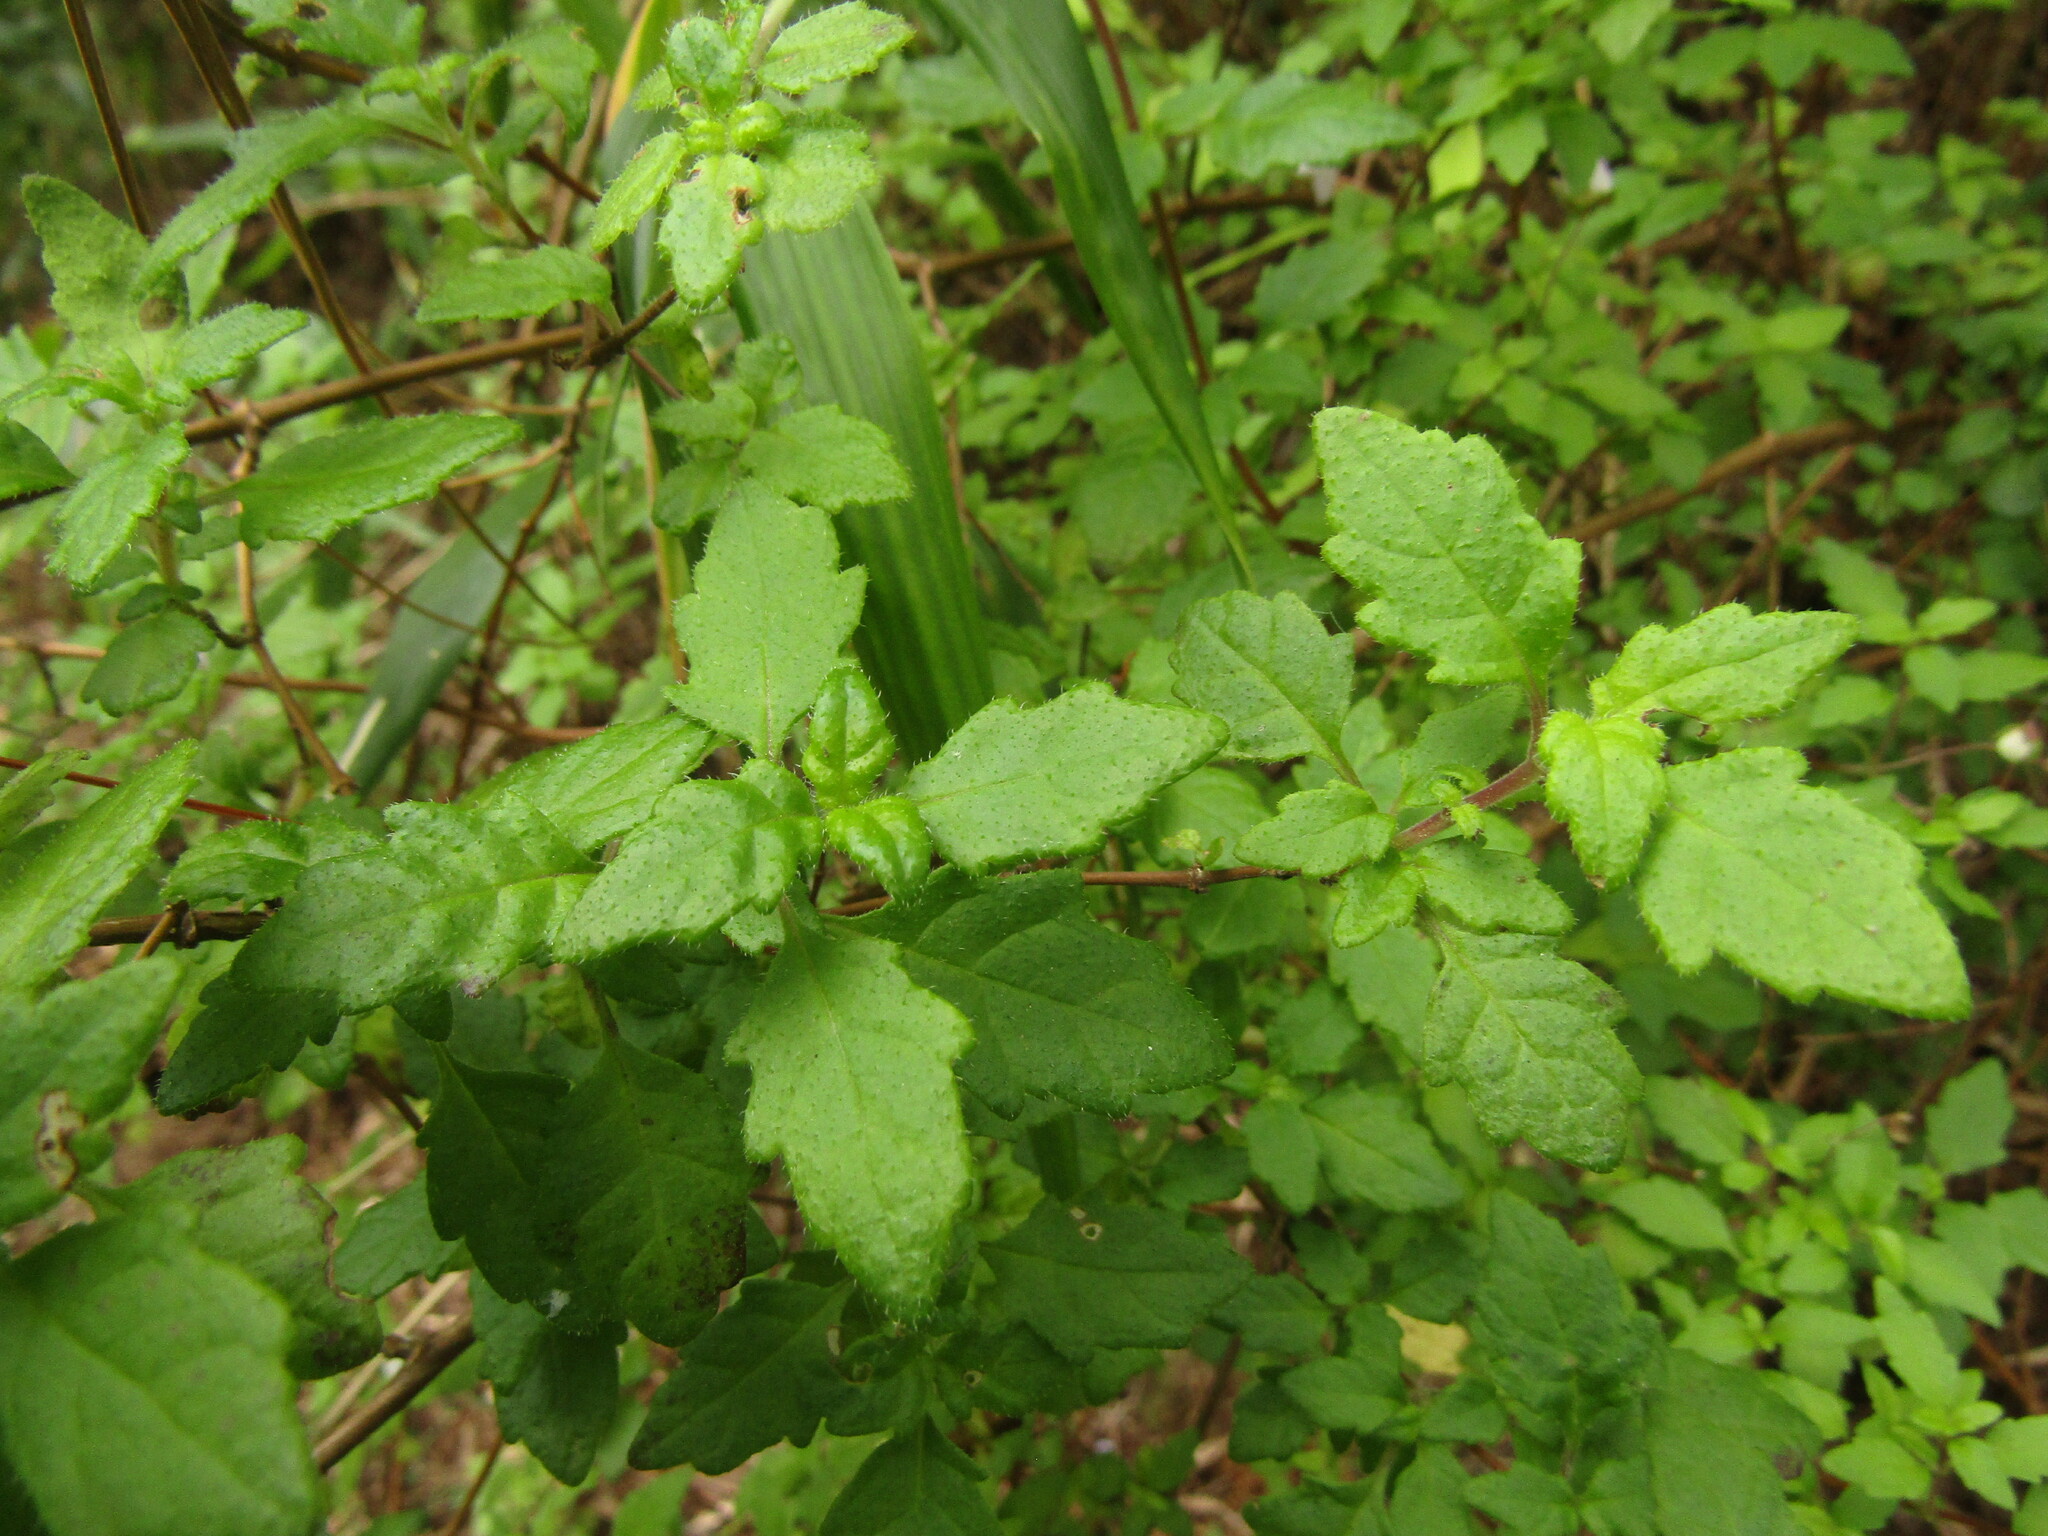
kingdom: Plantae
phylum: Tracheophyta
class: Magnoliopsida
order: Lamiales
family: Calceolariaceae
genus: Jovellana
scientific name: Jovellana violacea
